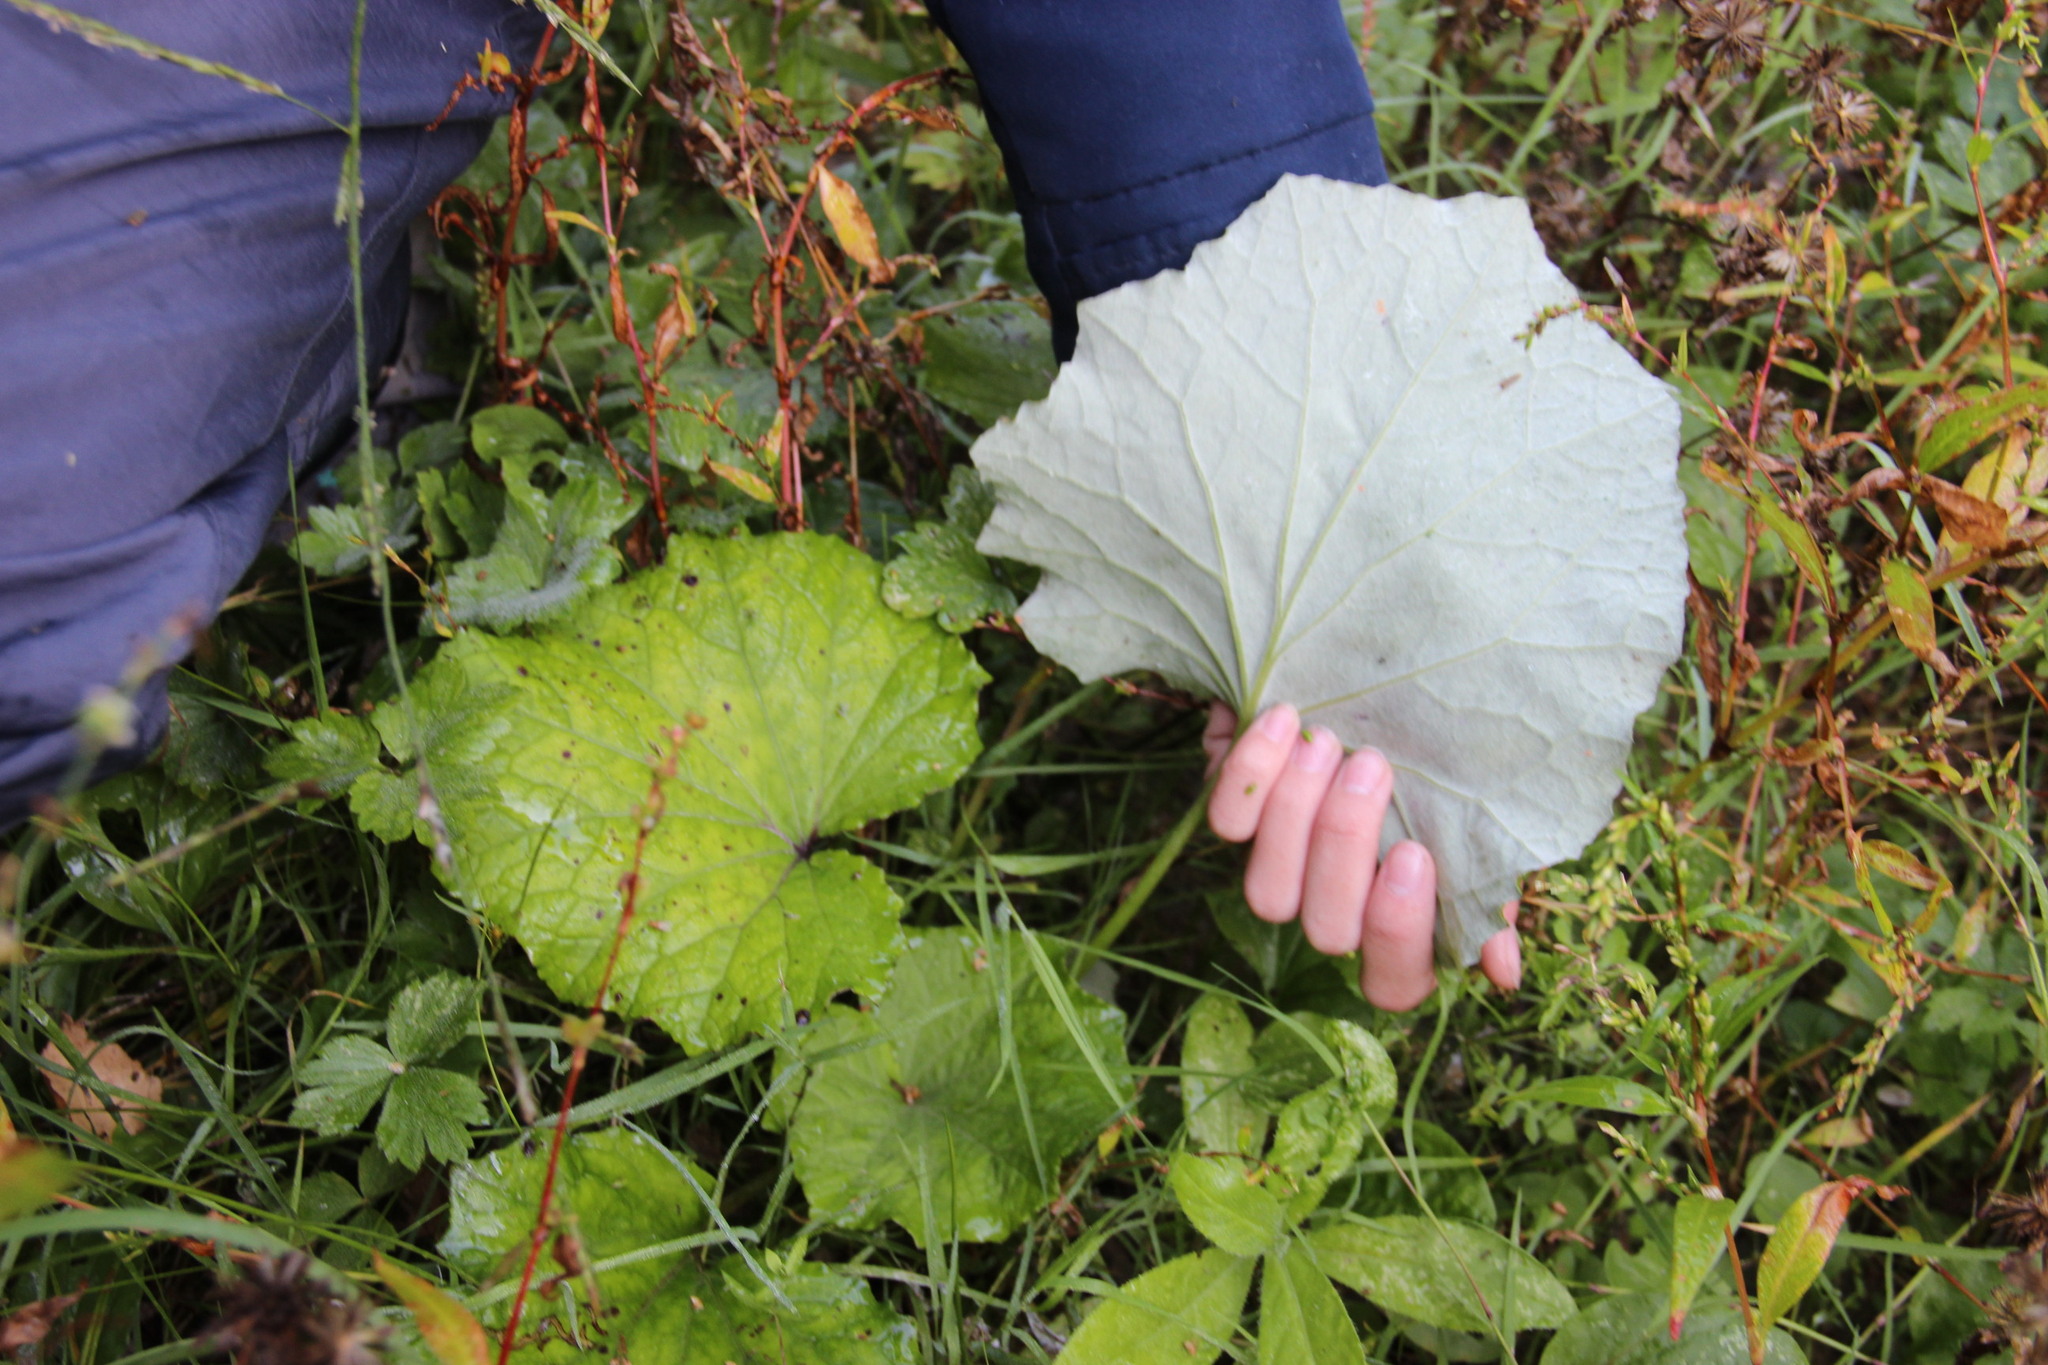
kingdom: Plantae
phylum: Tracheophyta
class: Magnoliopsida
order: Asterales
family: Asteraceae
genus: Tussilago
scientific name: Tussilago farfara
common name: Coltsfoot
